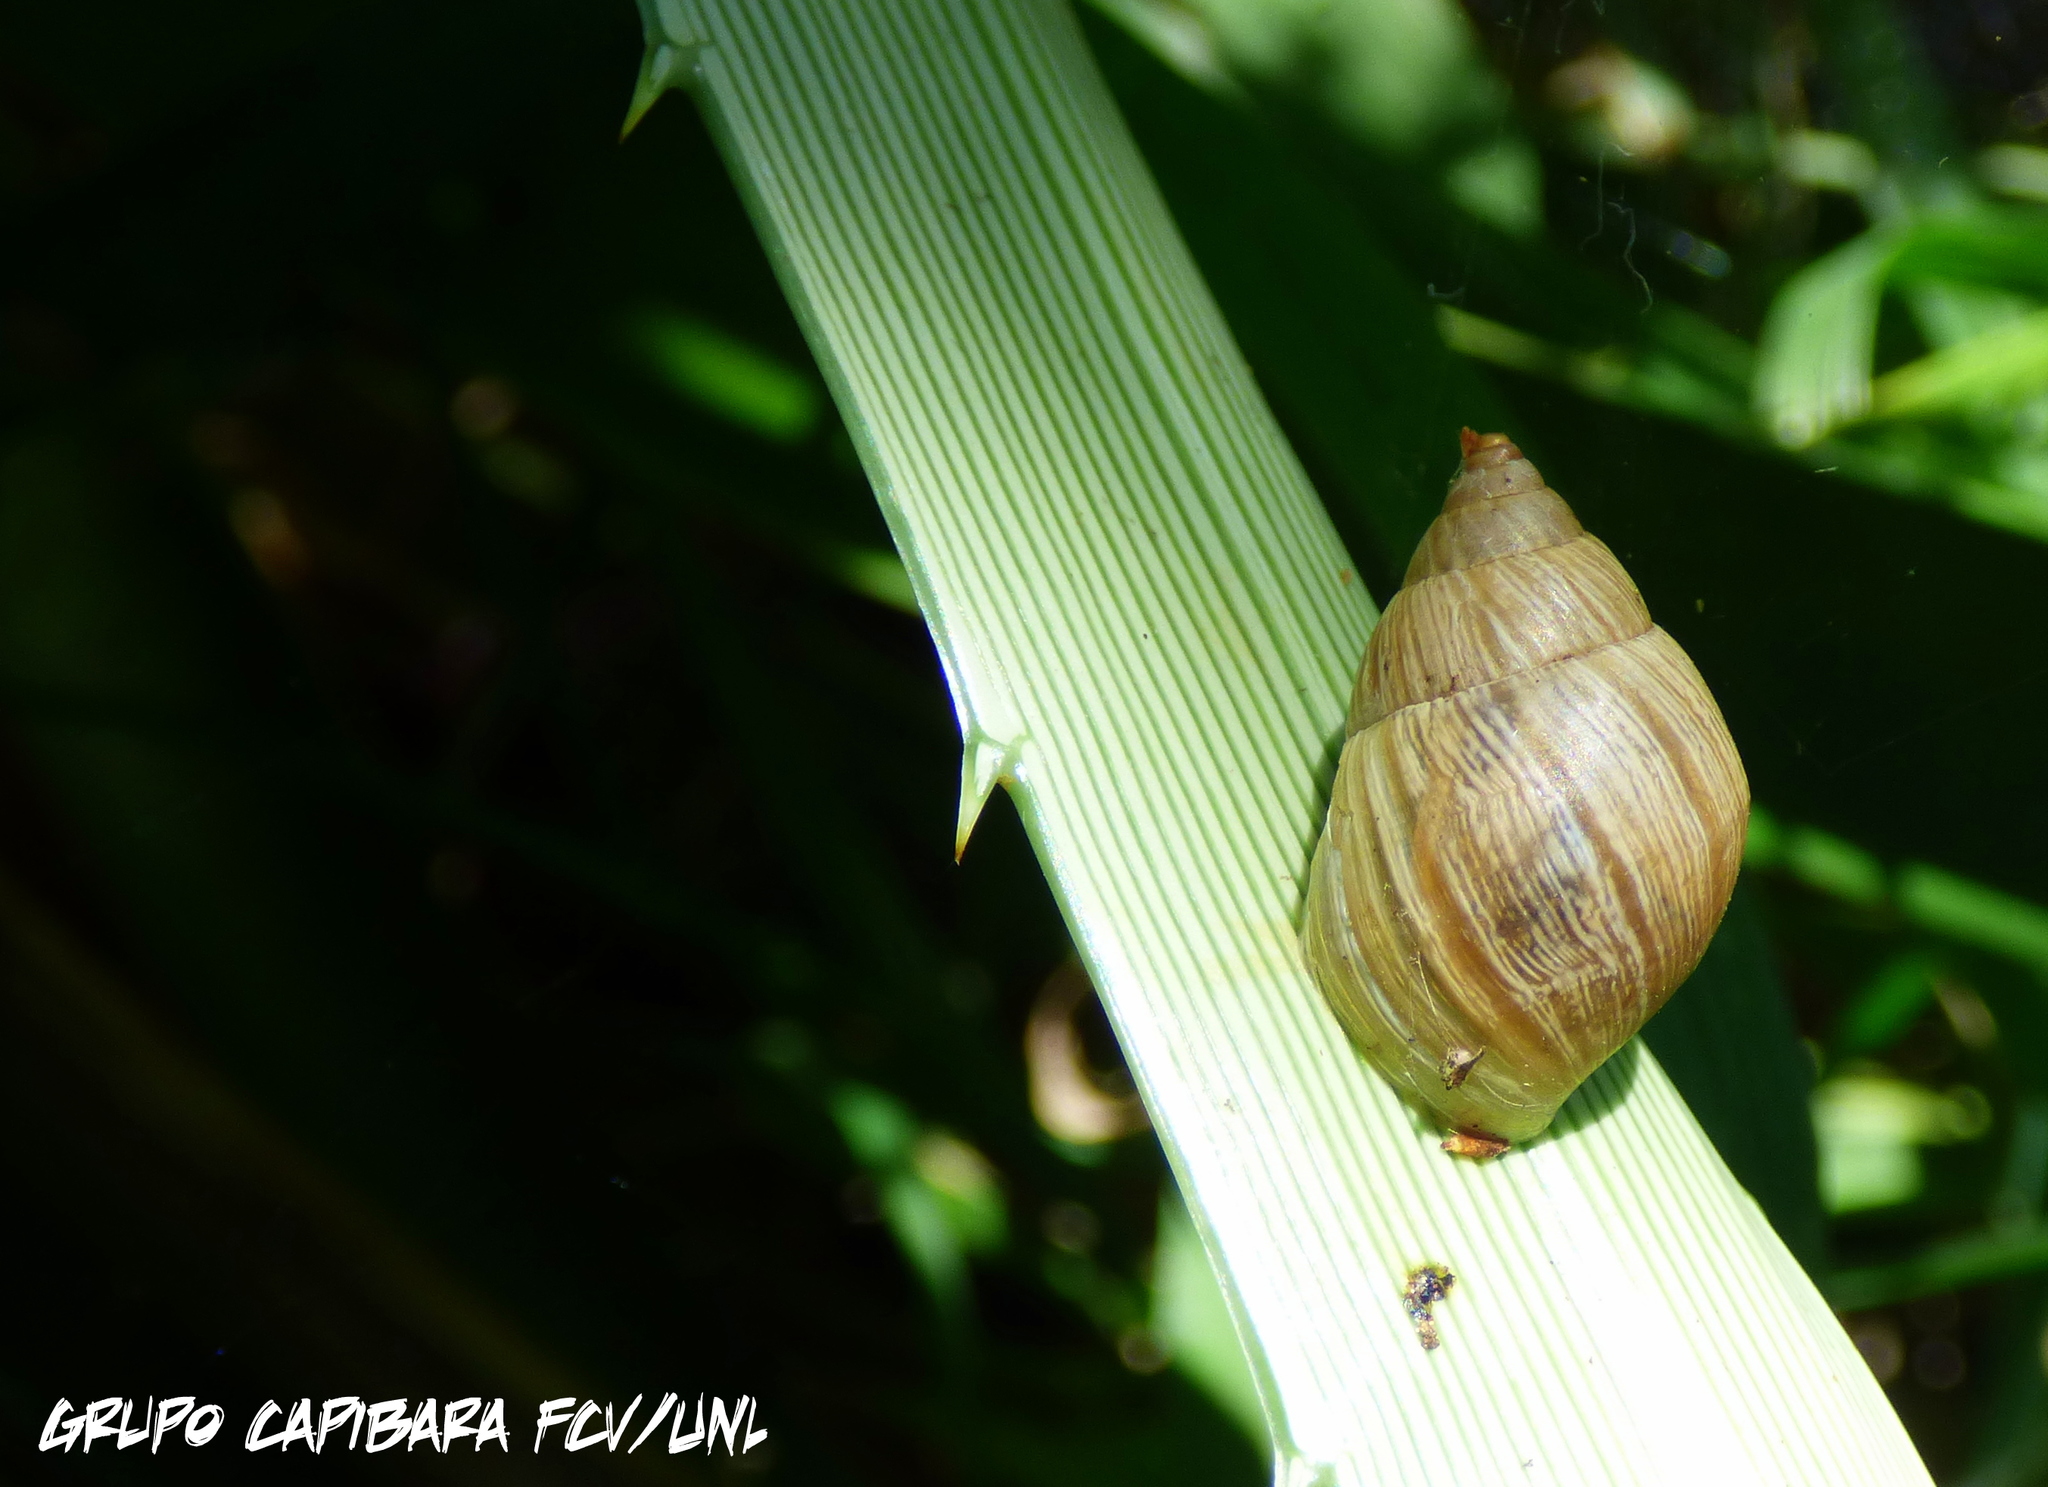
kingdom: Animalia
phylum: Mollusca
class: Gastropoda
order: Stylommatophora
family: Bulimulidae
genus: Bulimulus
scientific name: Bulimulus bonariensis
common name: Snail
